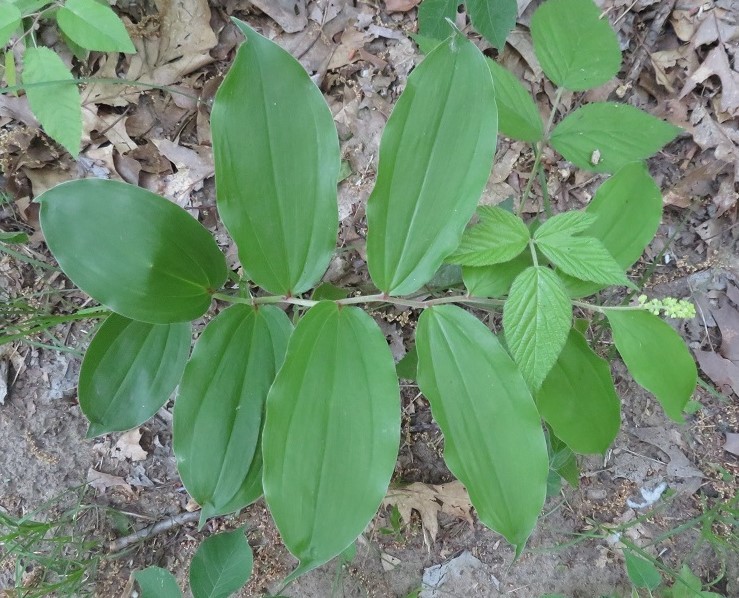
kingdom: Plantae
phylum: Tracheophyta
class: Liliopsida
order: Asparagales
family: Asparagaceae
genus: Maianthemum
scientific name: Maianthemum racemosum
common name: False spikenard
